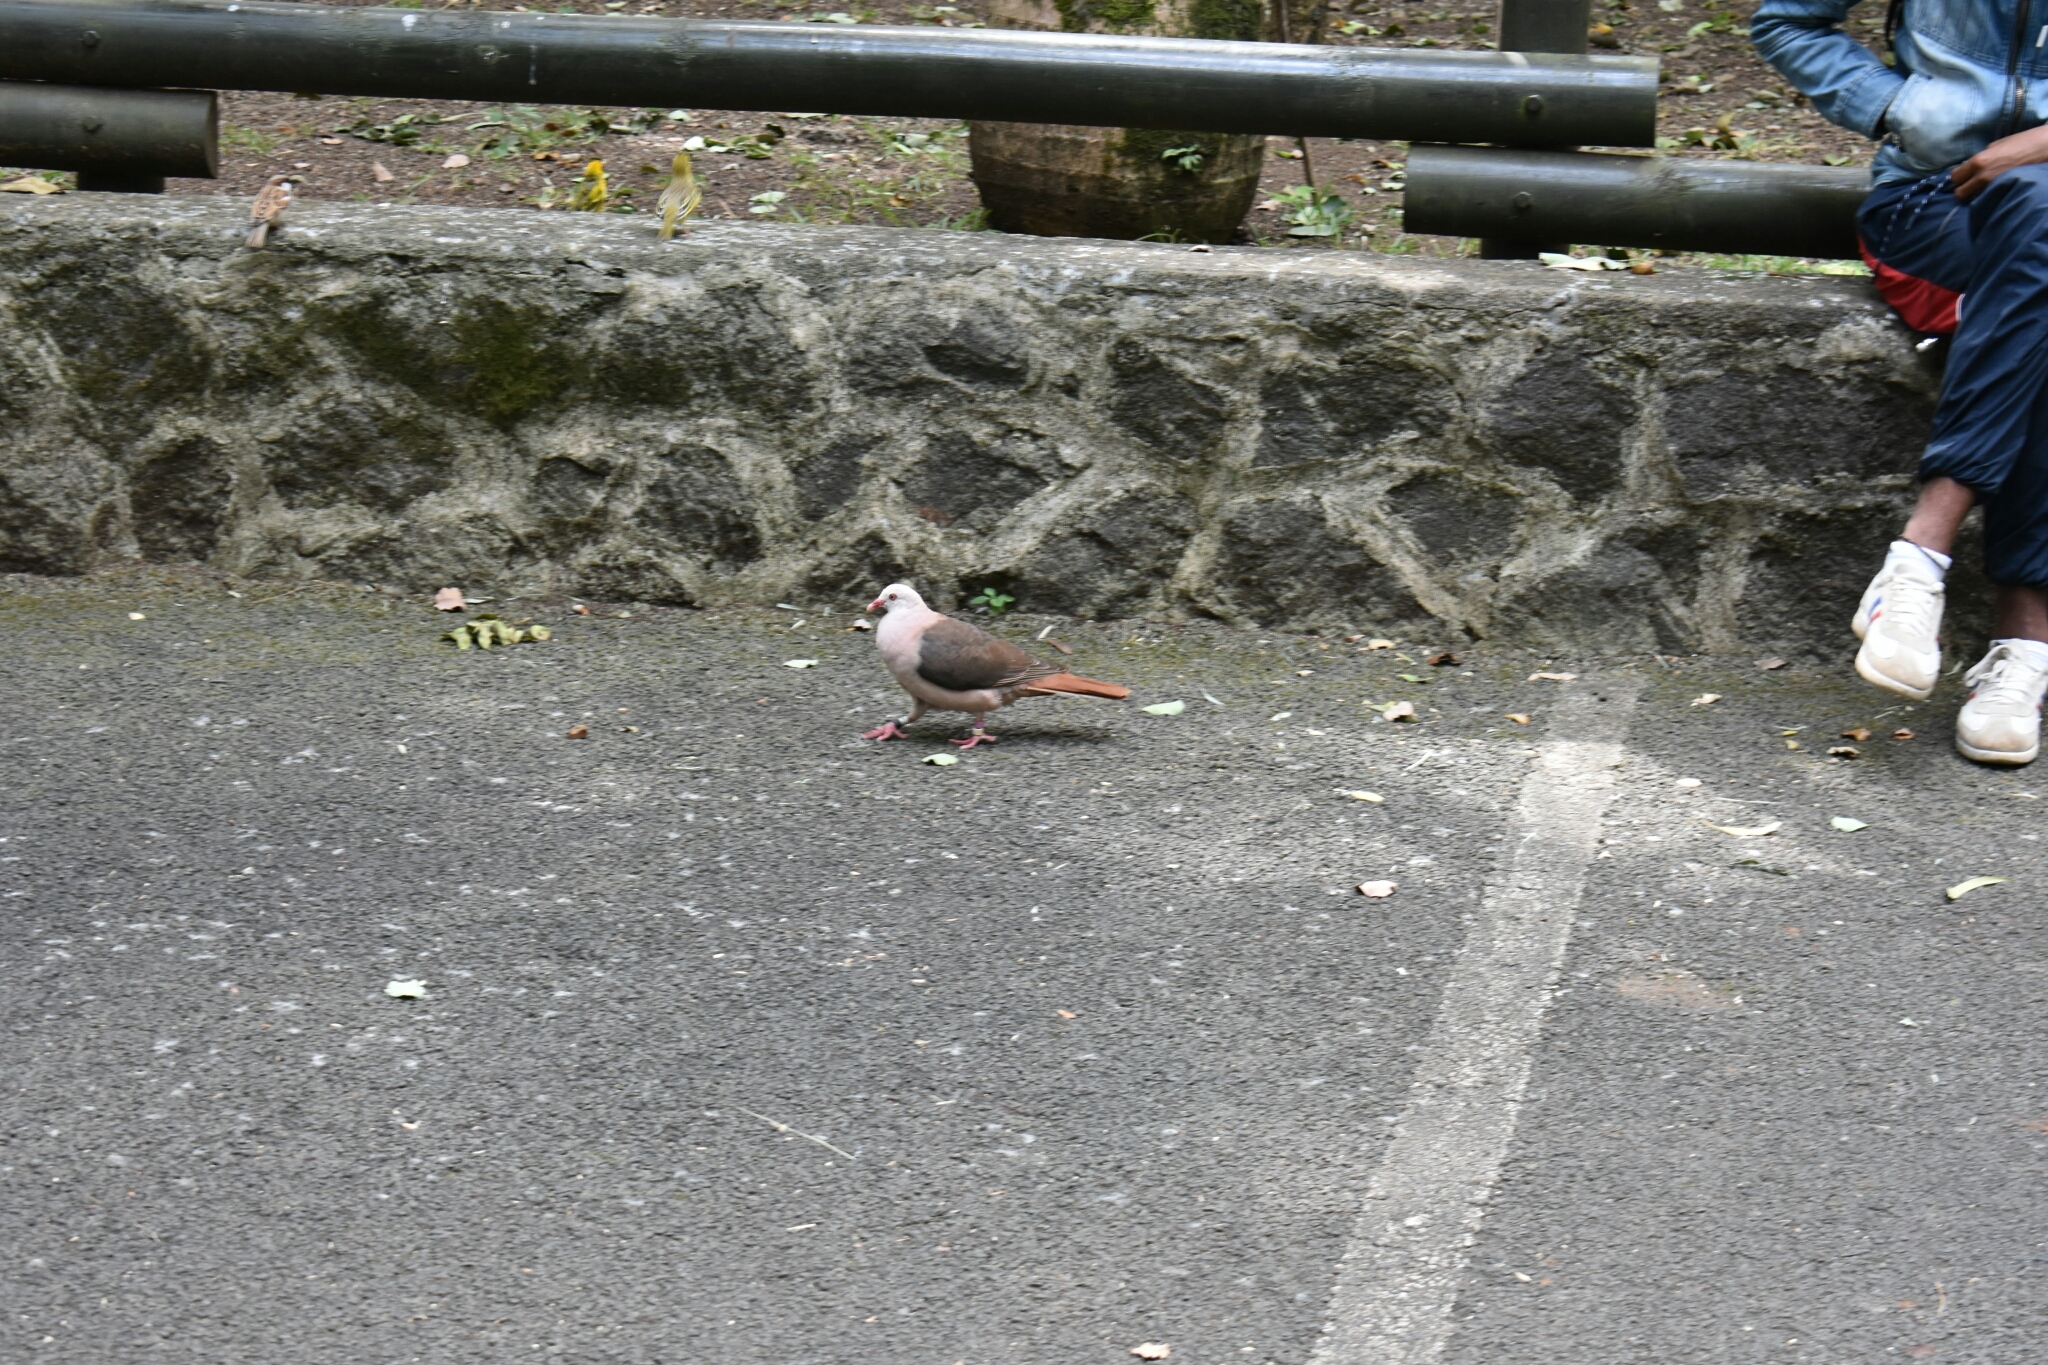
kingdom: Animalia
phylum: Chordata
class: Aves
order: Columbiformes
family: Columbidae
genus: Nesoenas
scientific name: Nesoenas mayeri
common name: Pink pigeon
